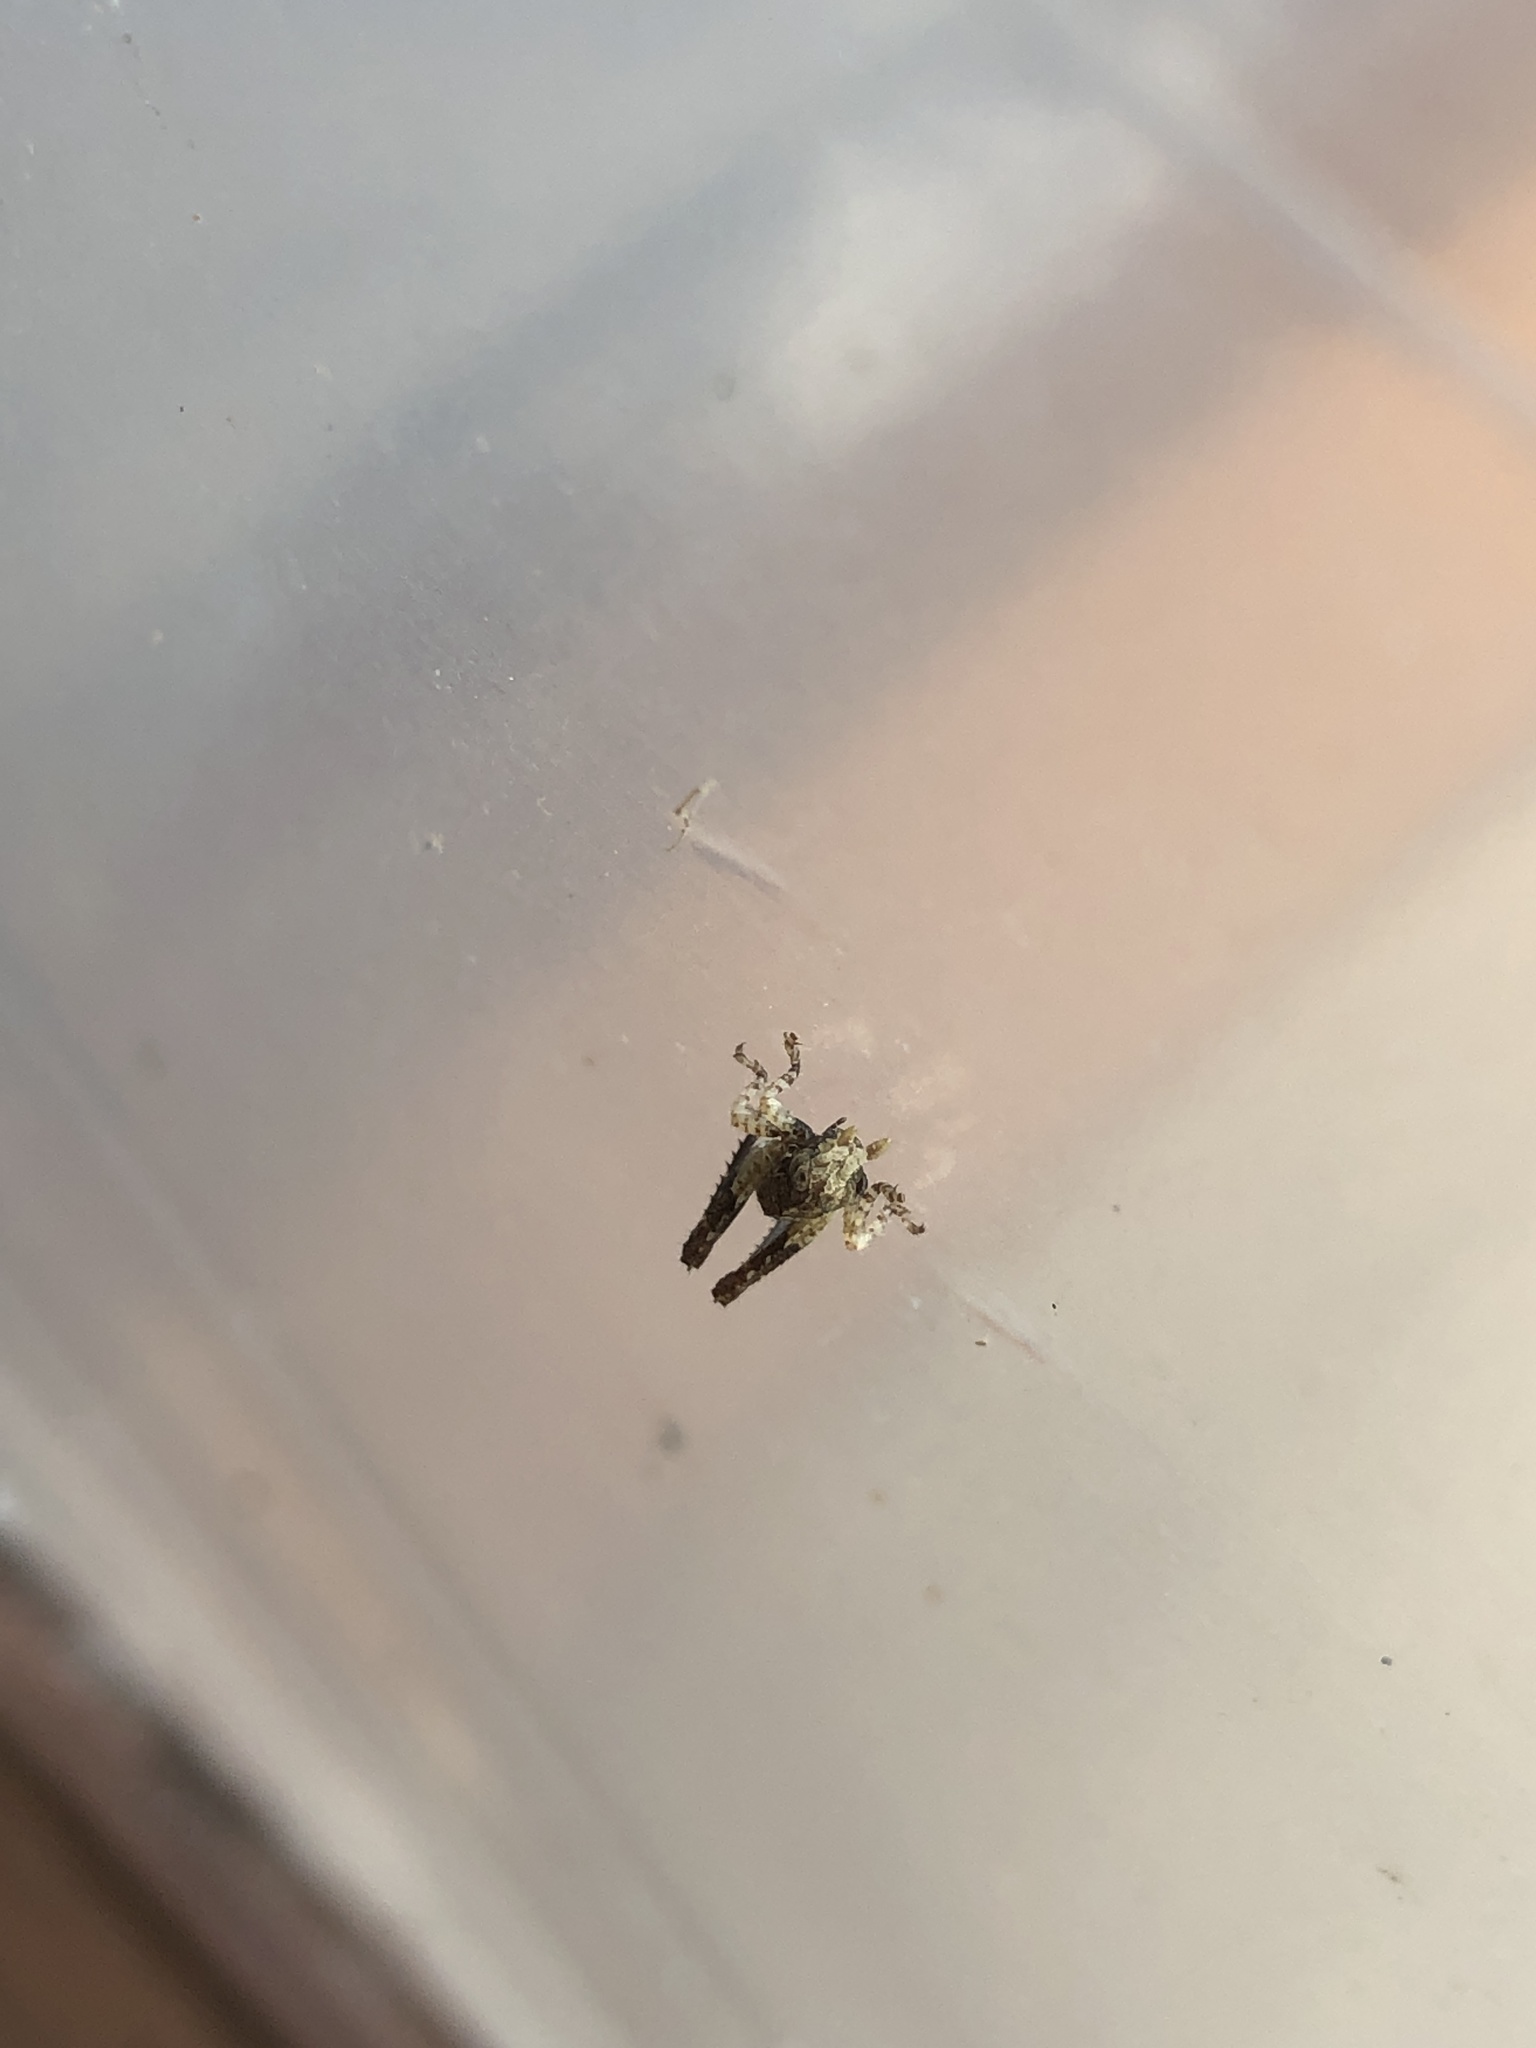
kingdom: Animalia
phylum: Arthropoda
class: Insecta
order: Orthoptera
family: Acrididae
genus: Traulia
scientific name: Traulia ornata
